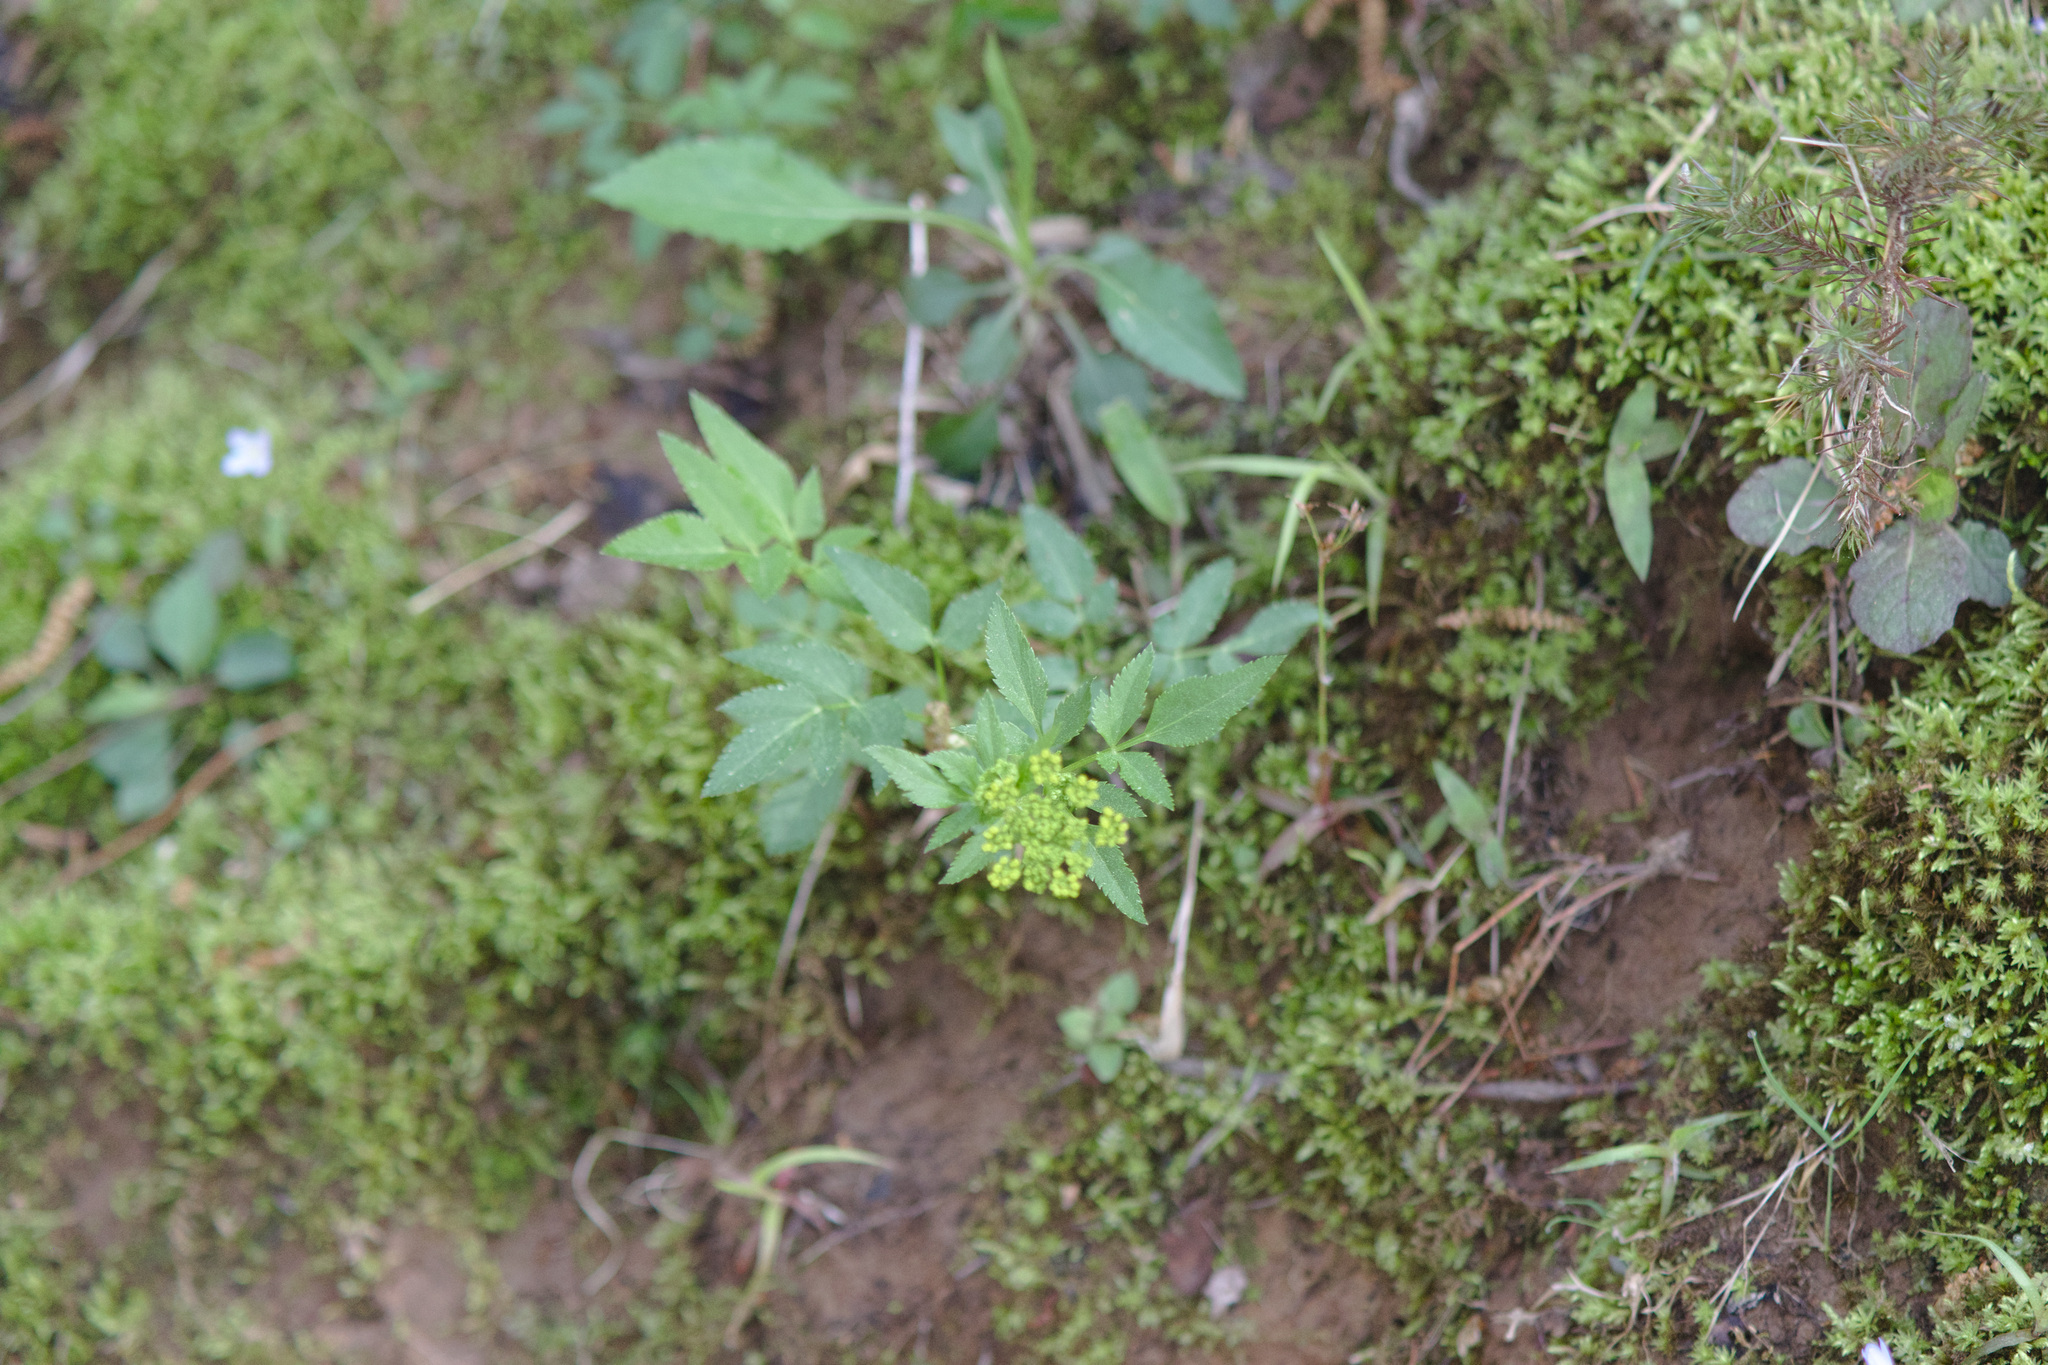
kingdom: Plantae
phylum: Tracheophyta
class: Magnoliopsida
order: Apiales
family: Apiaceae
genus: Zizia
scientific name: Zizia aurea
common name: Golden alexanders
